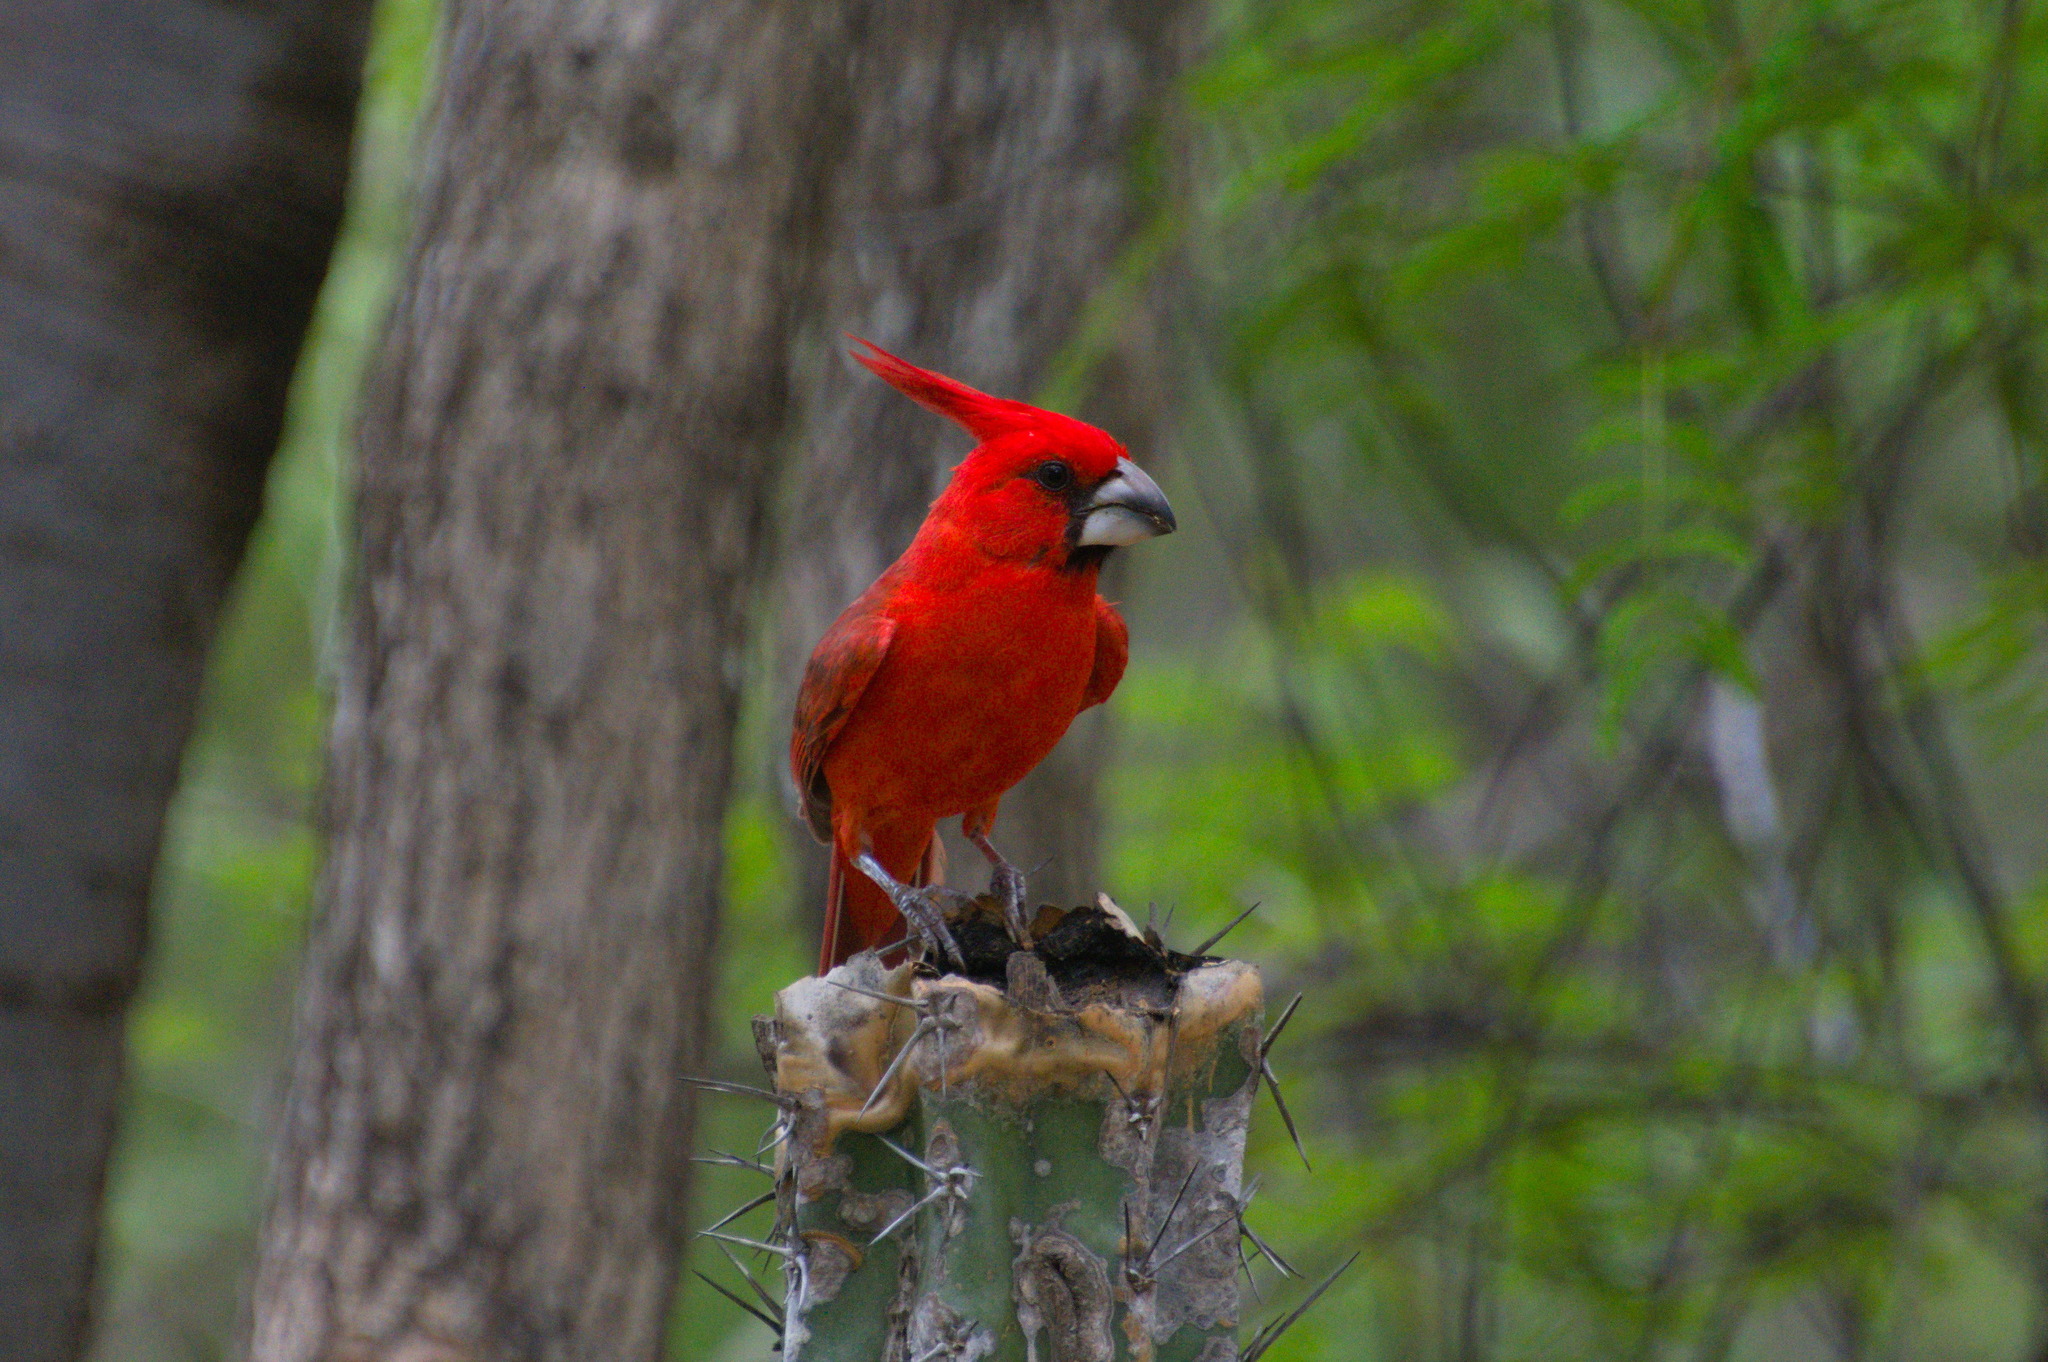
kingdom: Animalia
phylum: Chordata
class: Aves
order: Passeriformes
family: Cardinalidae
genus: Cardinalis
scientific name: Cardinalis phoeniceus
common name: Vermilion cardinal
